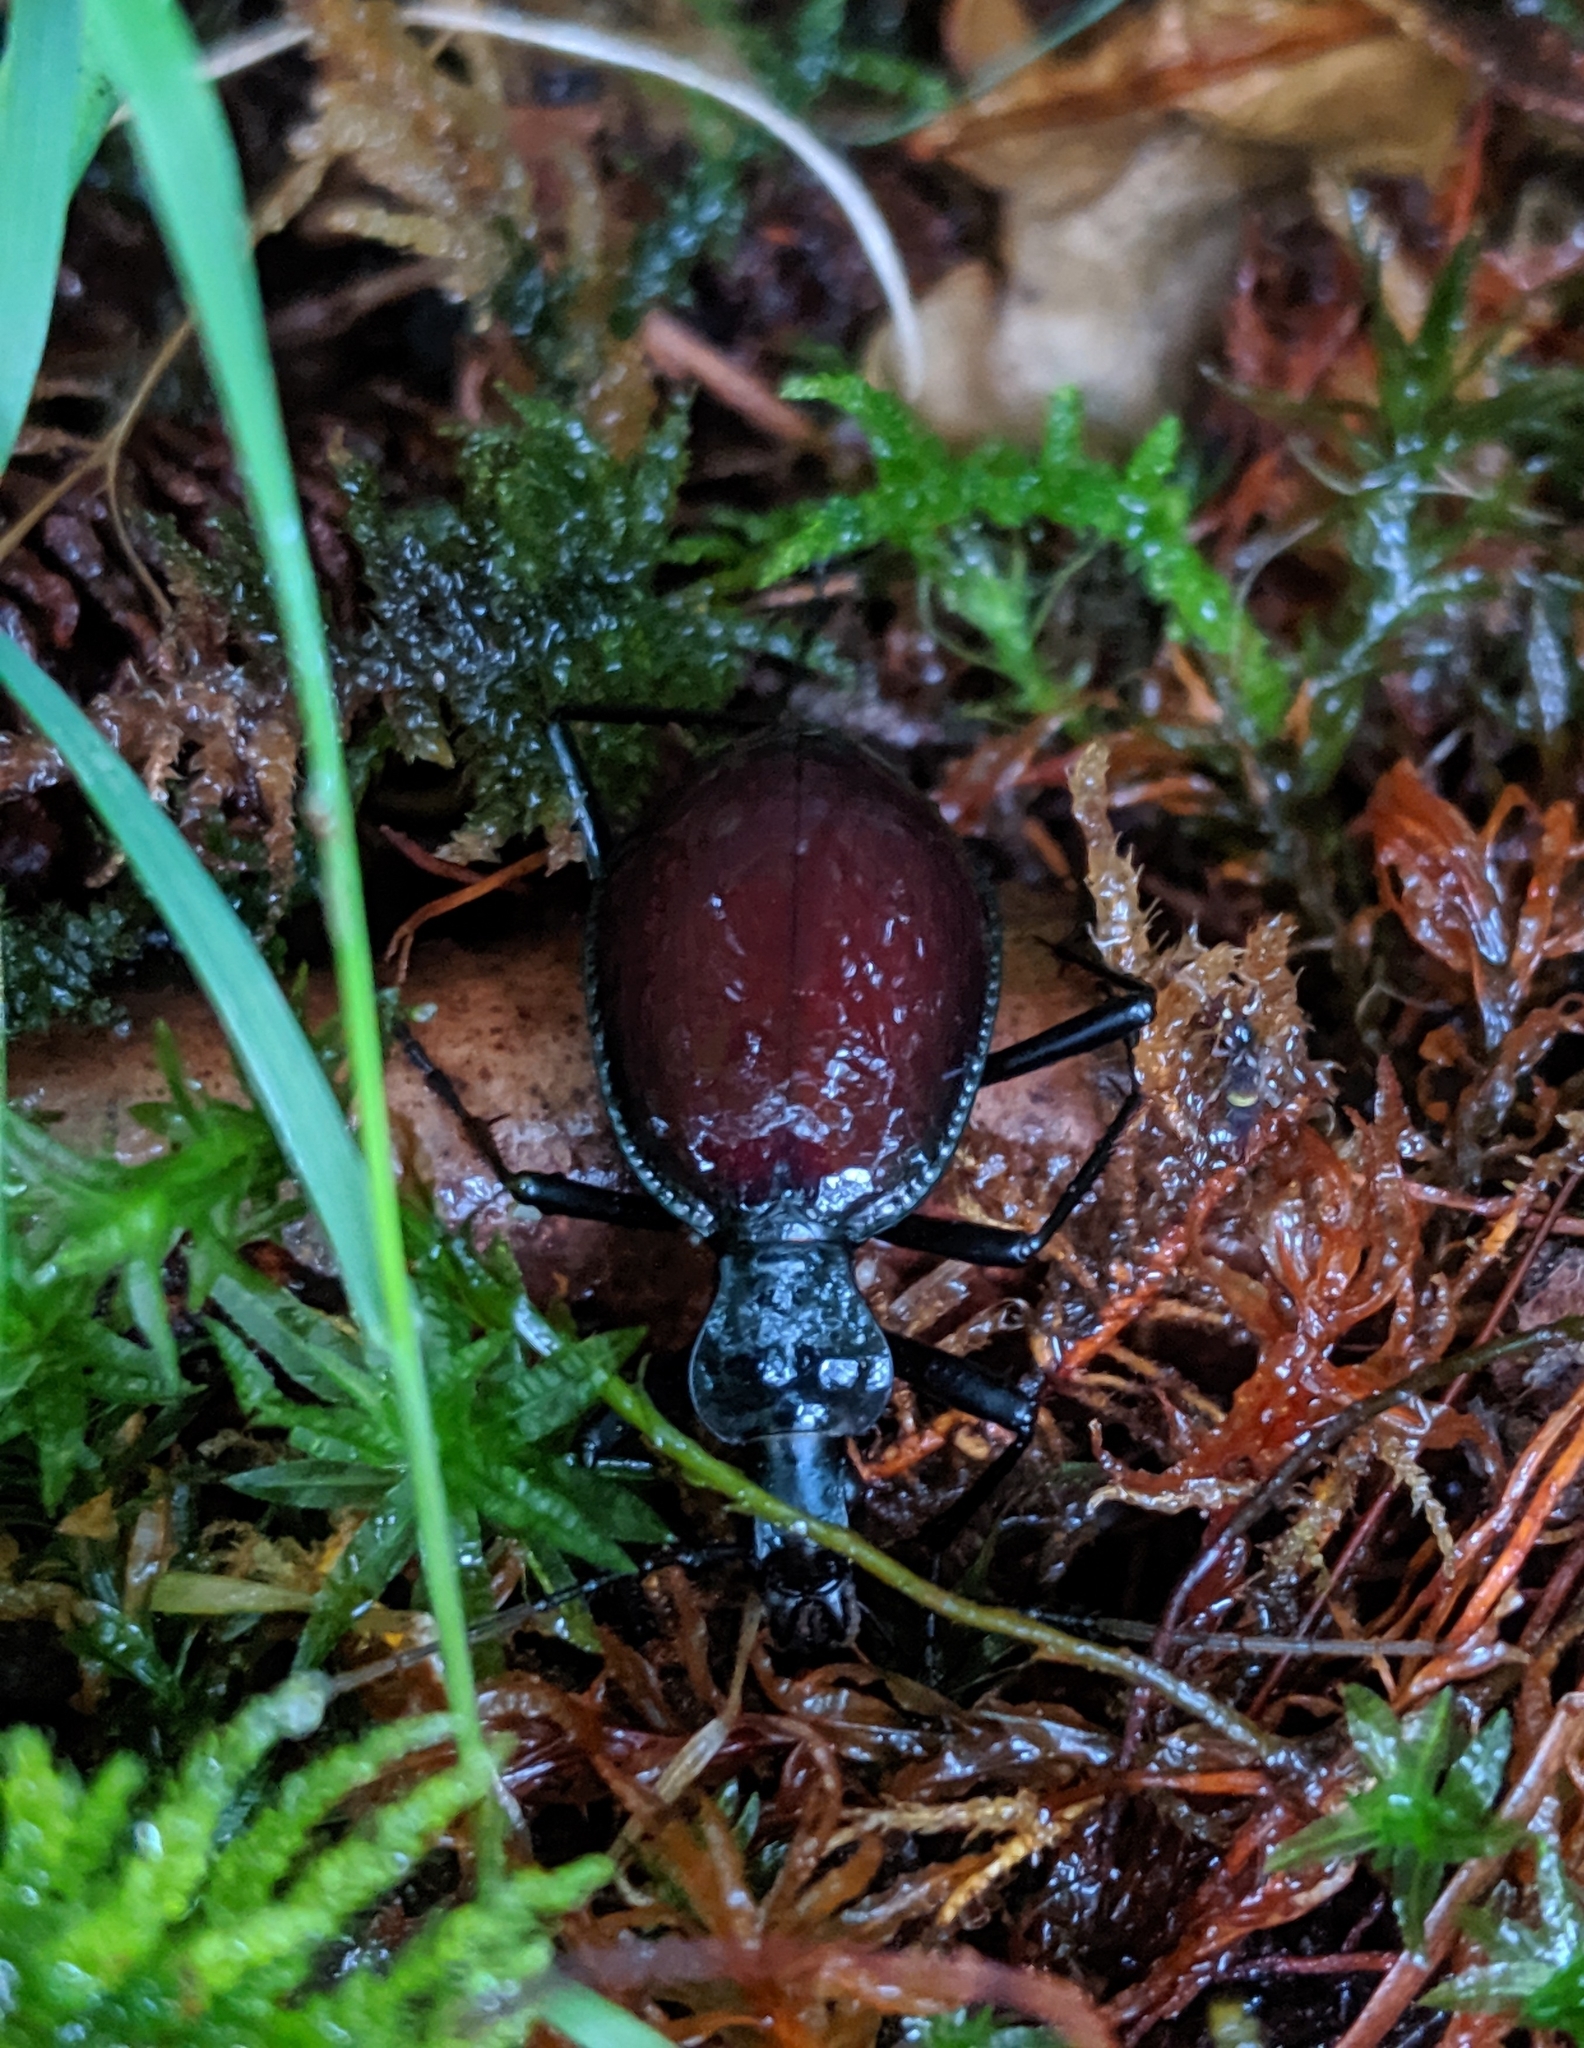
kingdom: Animalia
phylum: Arthropoda
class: Insecta
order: Coleoptera
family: Carabidae
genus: Scaphinotus
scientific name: Scaphinotus angusticollis
